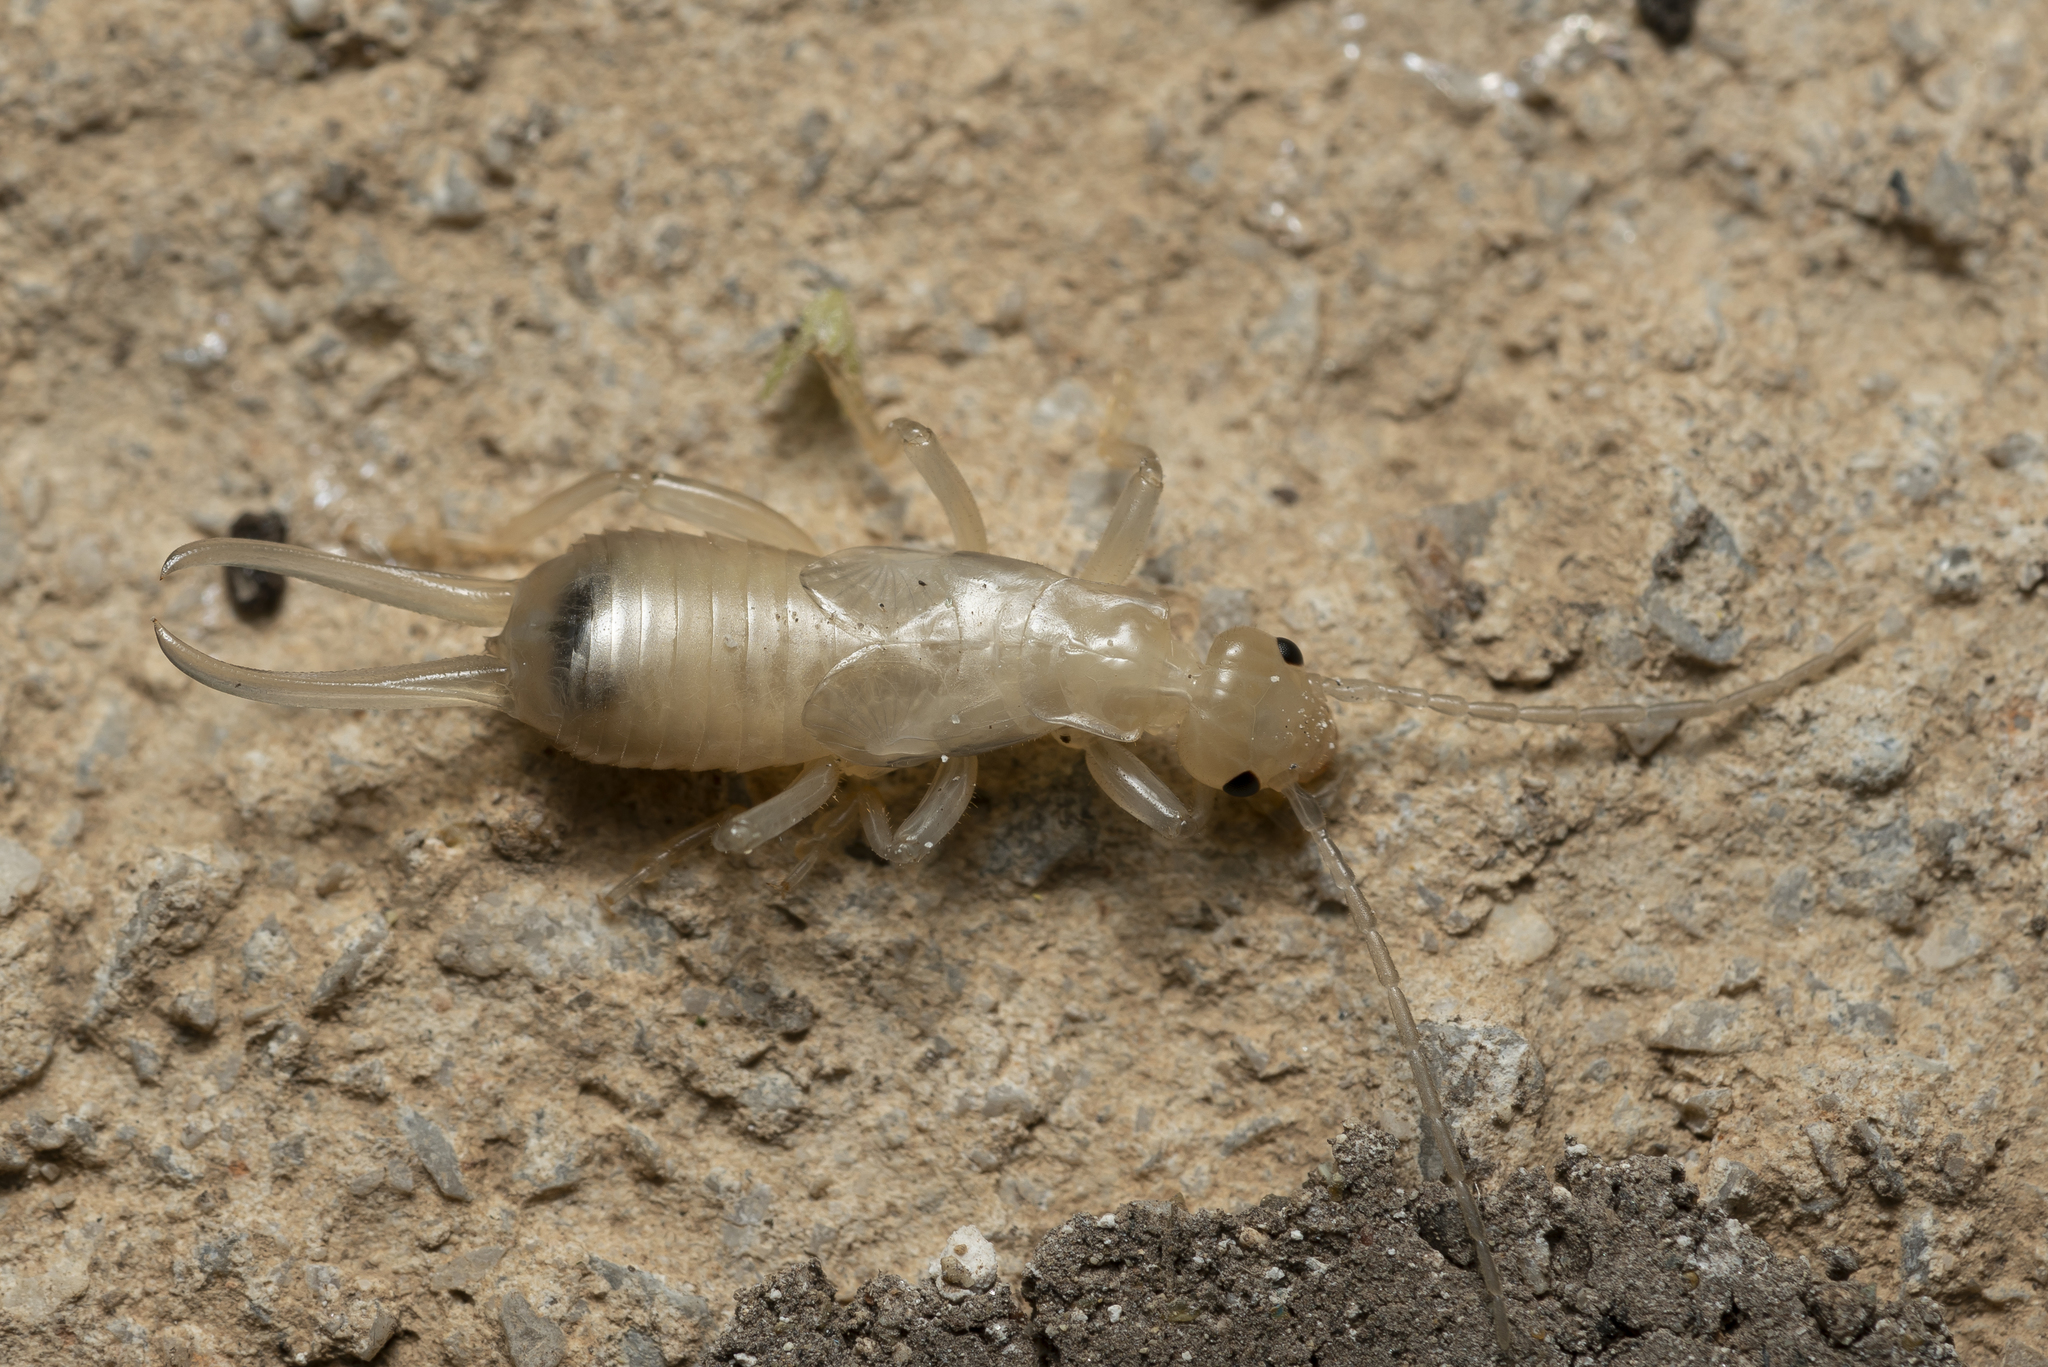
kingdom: Animalia
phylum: Arthropoda
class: Insecta
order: Dermaptera
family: Forficulidae
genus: Forficula
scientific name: Forficula lurida
